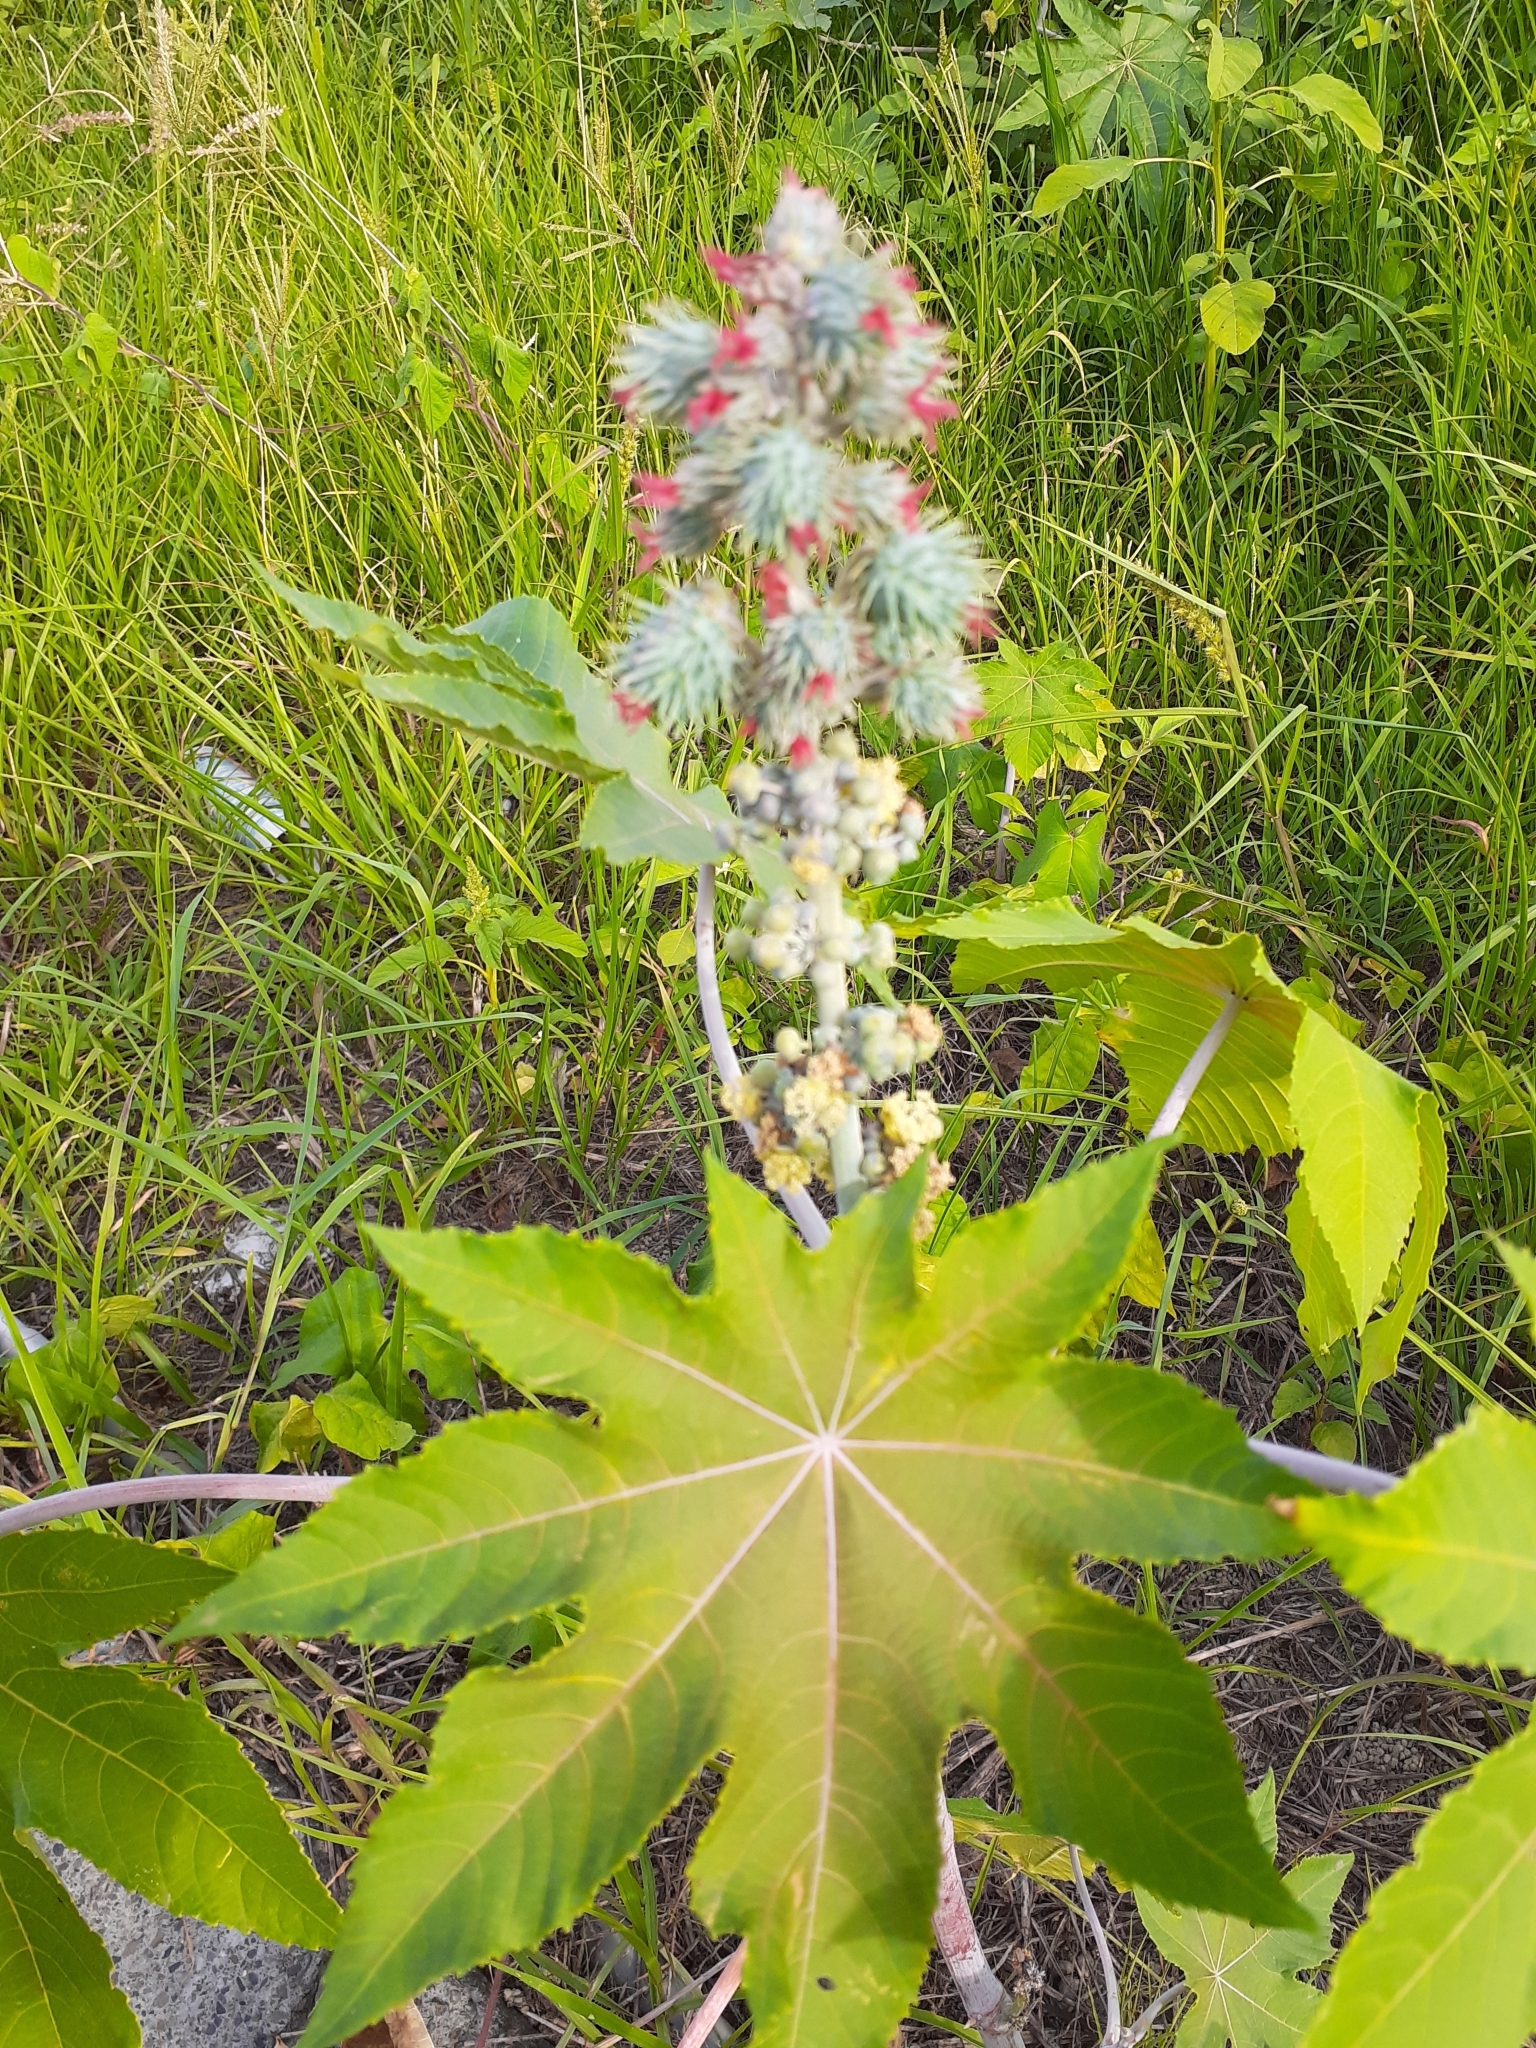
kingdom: Plantae
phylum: Tracheophyta
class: Magnoliopsida
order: Malpighiales
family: Euphorbiaceae
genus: Ricinus
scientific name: Ricinus communis
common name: Castor-oil-plant
